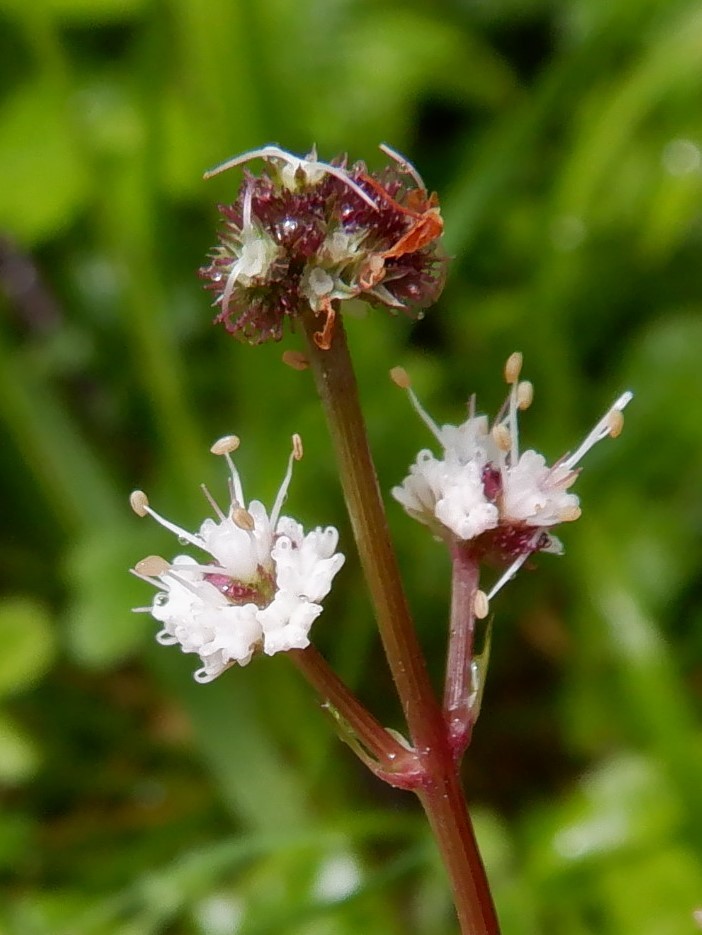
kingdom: Plantae
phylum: Tracheophyta
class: Magnoliopsida
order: Apiales
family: Apiaceae
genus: Sanicula
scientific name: Sanicula europaea
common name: Sanicle
